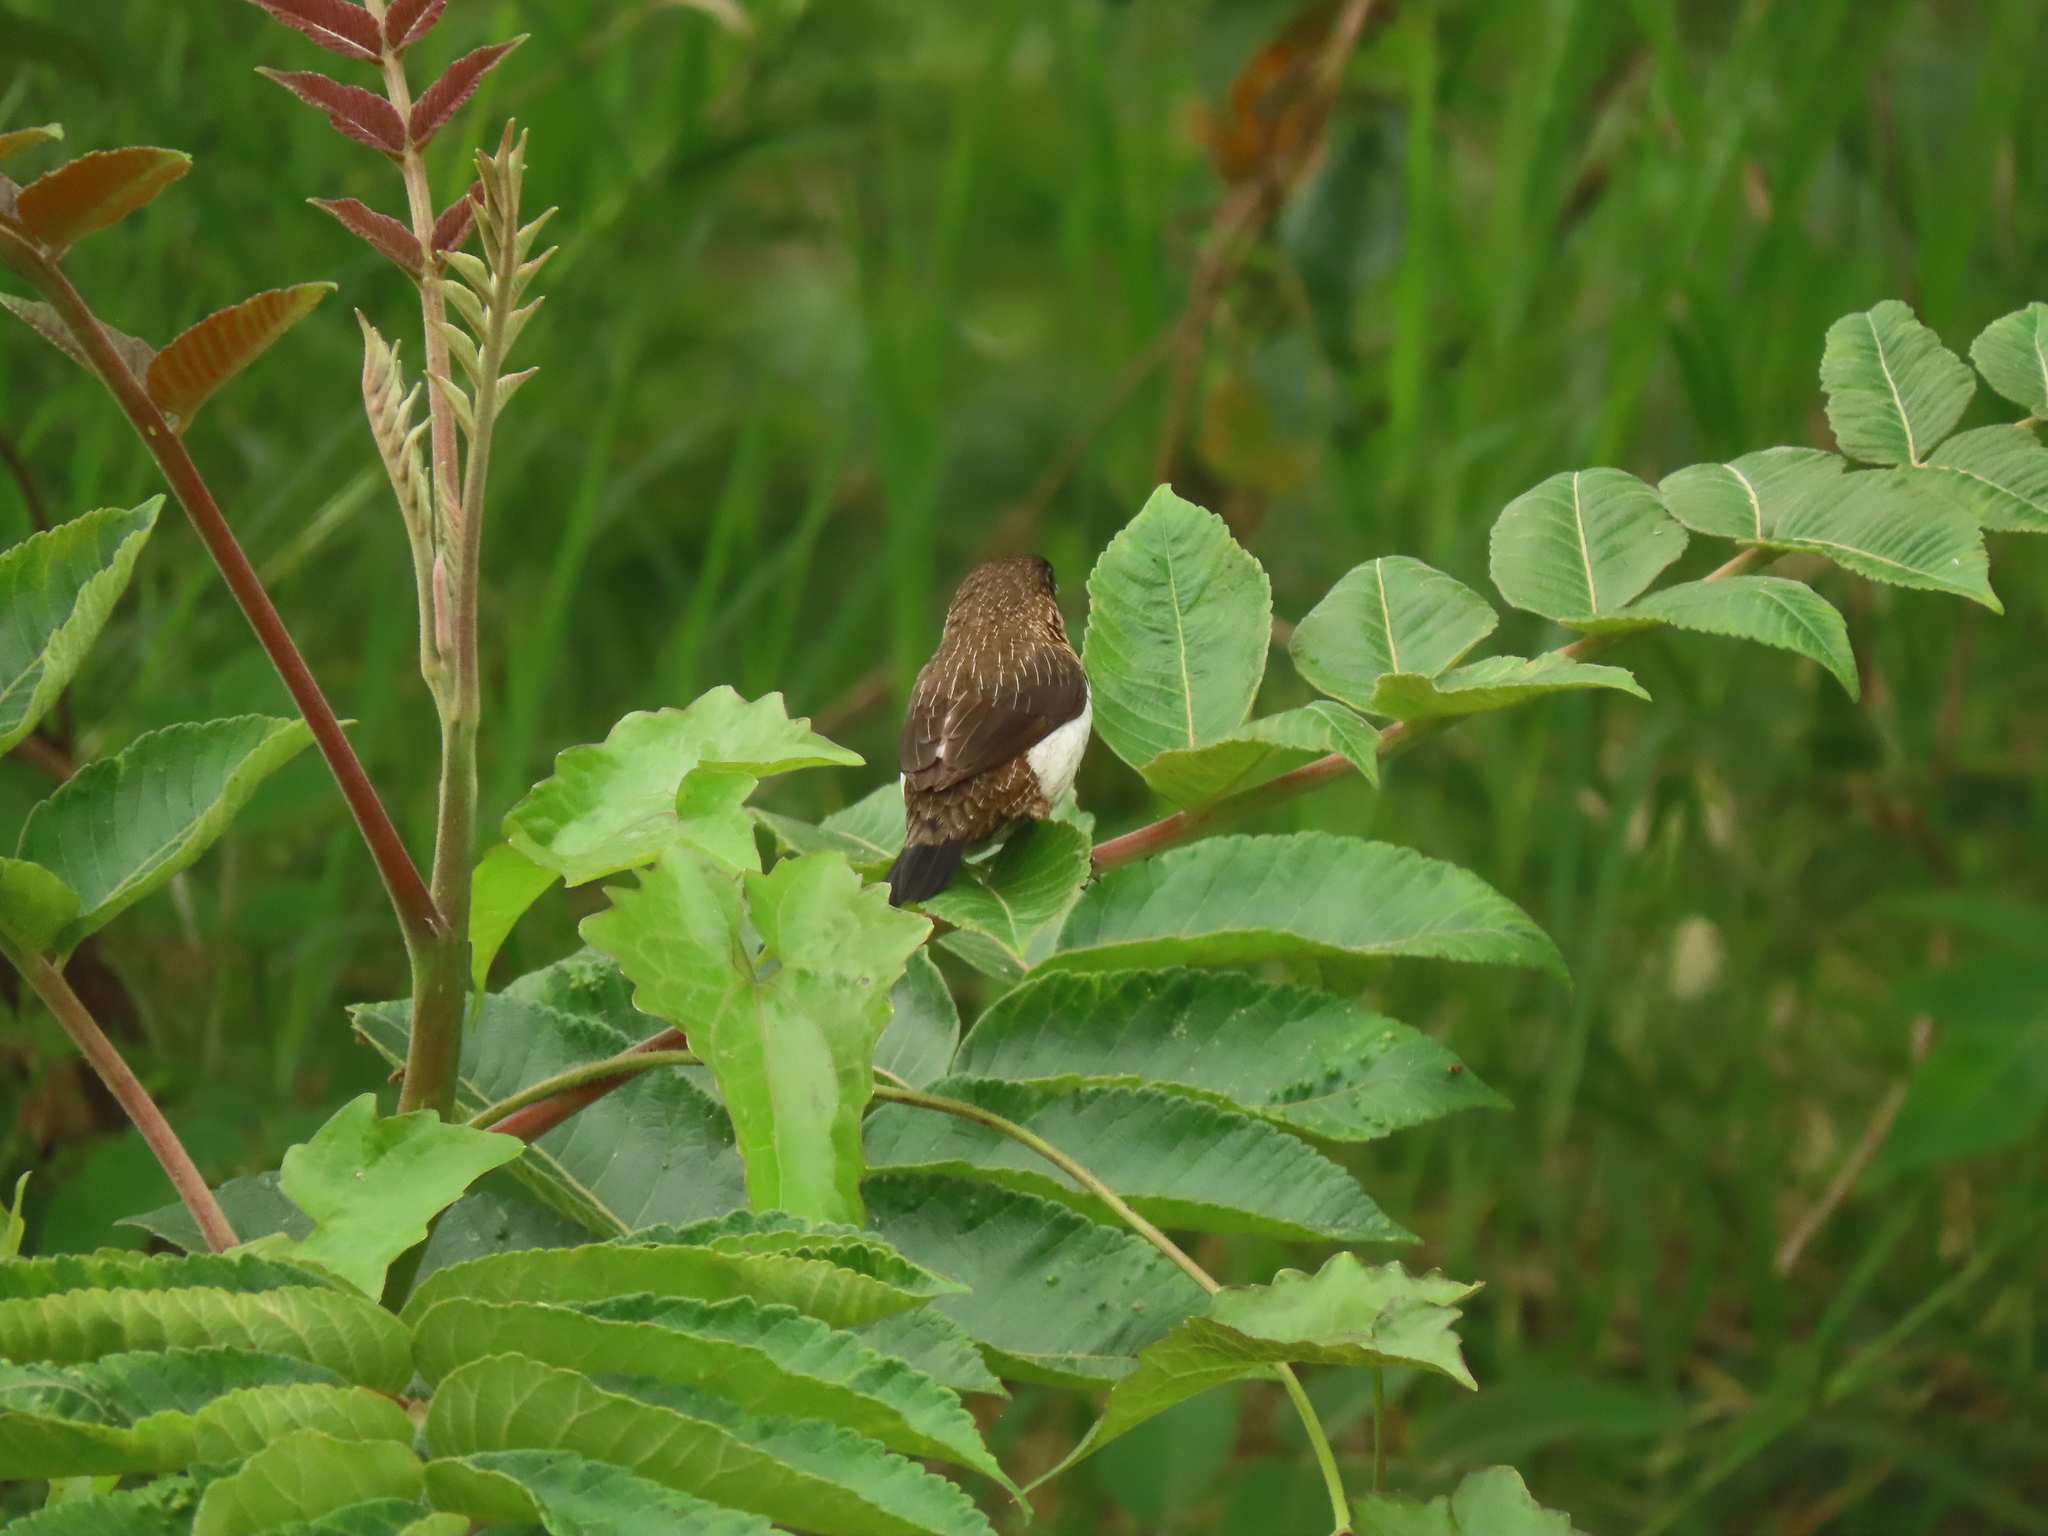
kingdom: Animalia
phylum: Chordata
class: Aves
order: Passeriformes
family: Estrildidae
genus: Lonchura
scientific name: Lonchura striata
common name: White-rumped munia
